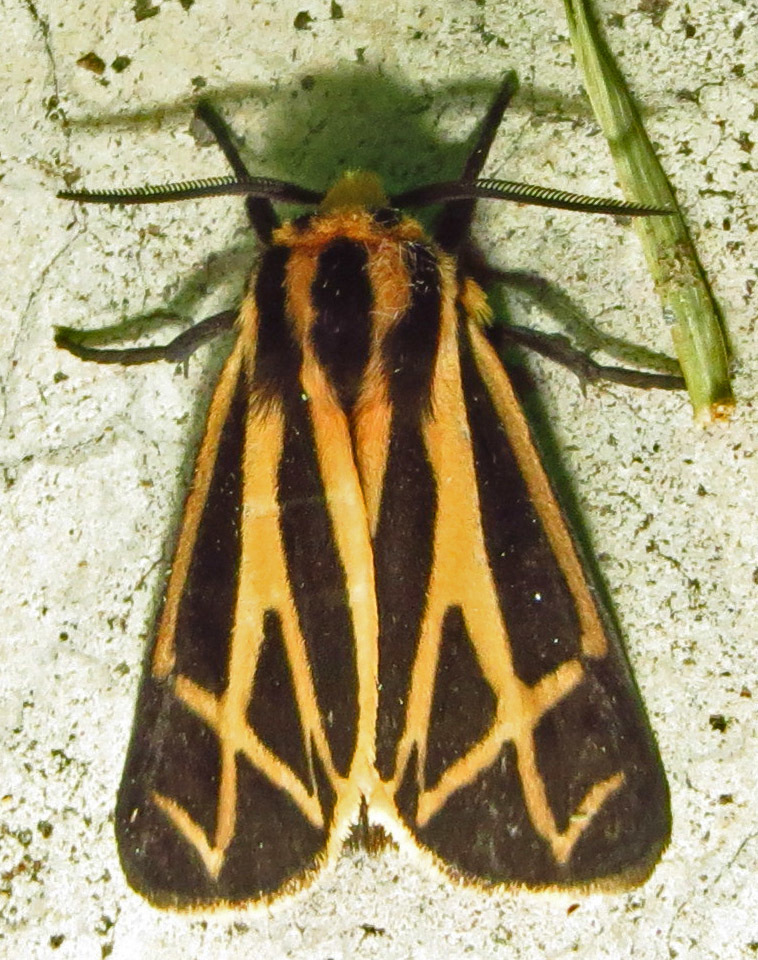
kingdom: Animalia
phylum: Arthropoda
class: Insecta
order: Lepidoptera
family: Erebidae
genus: Apantesis
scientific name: Apantesis phalerata
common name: Harnessed tiger moth
